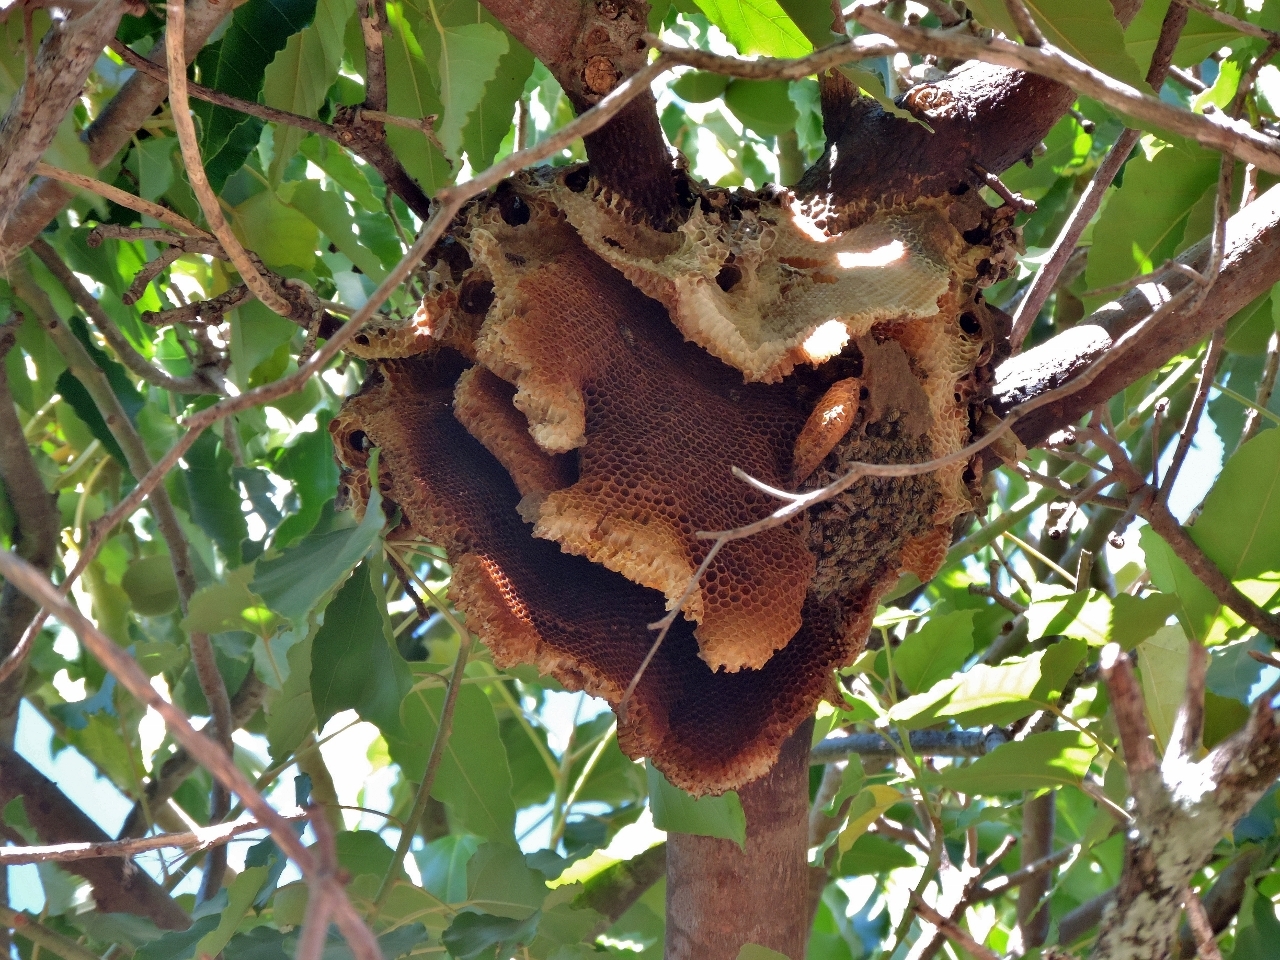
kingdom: Animalia
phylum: Arthropoda
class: Insecta
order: Hymenoptera
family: Apidae
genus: Apis
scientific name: Apis mellifera
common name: Honey bee
